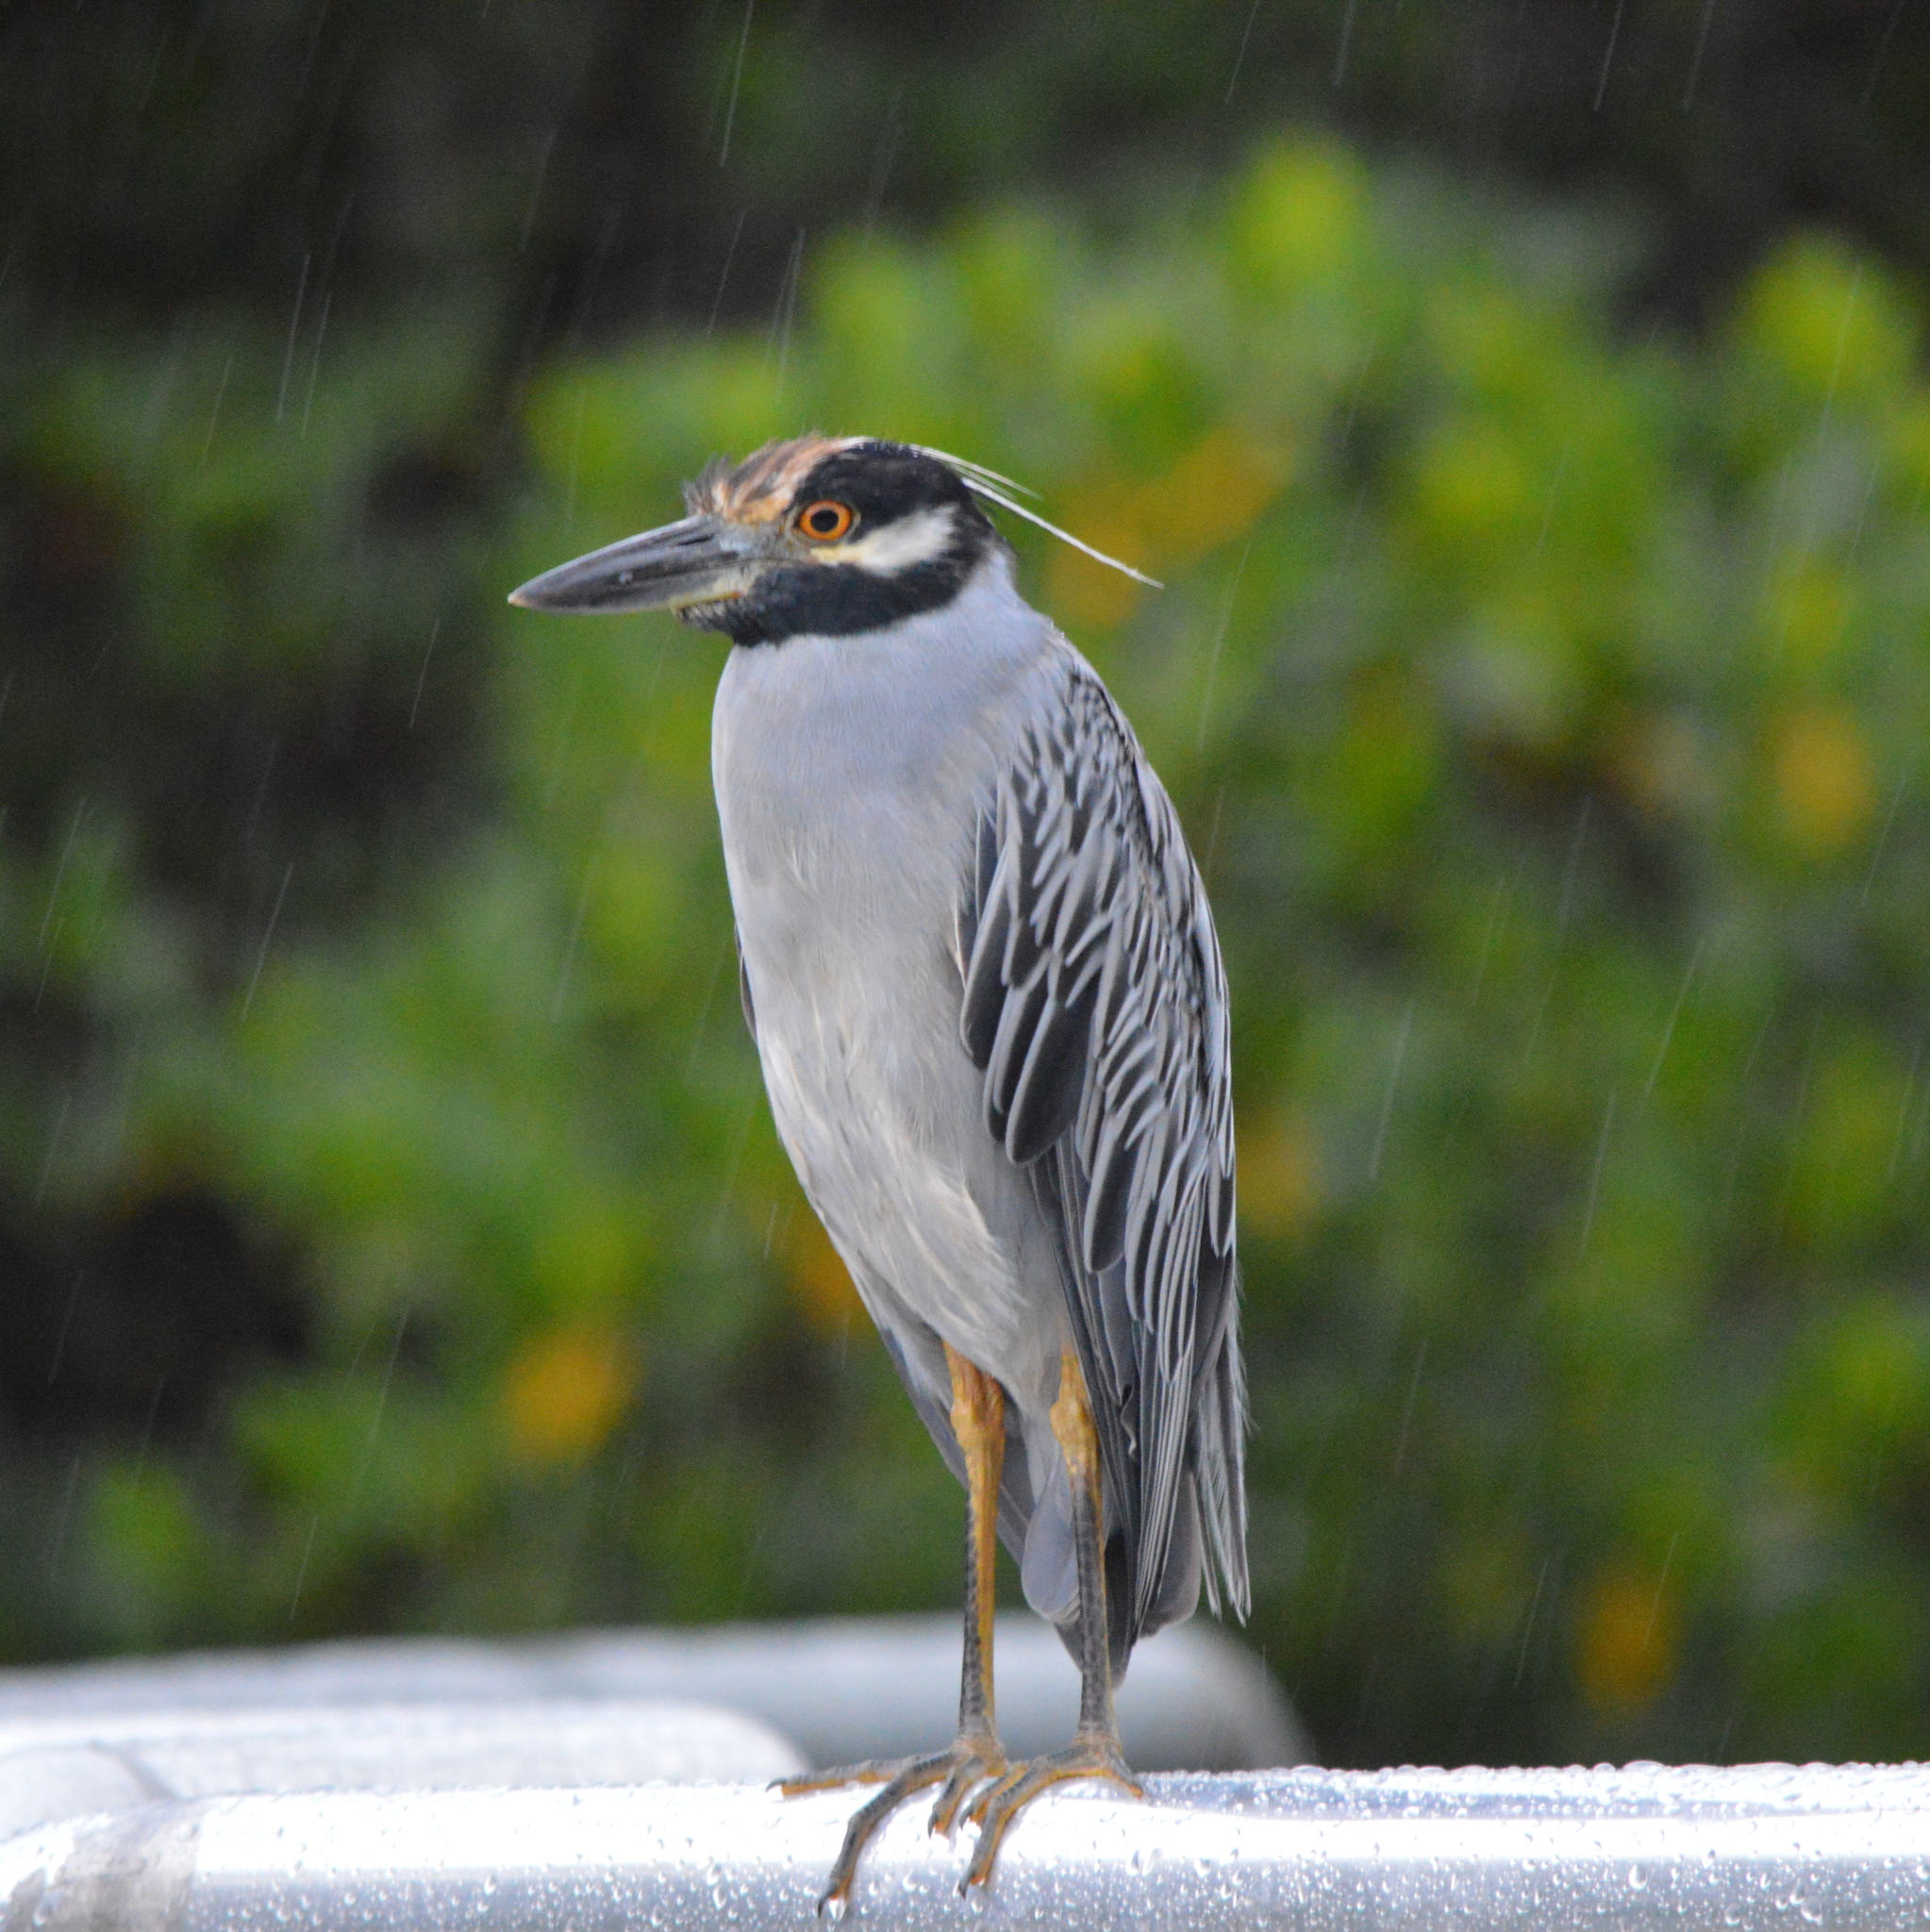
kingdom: Animalia
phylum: Chordata
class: Aves
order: Pelecaniformes
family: Ardeidae
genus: Nyctanassa
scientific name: Nyctanassa violacea
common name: Yellow-crowned night heron
